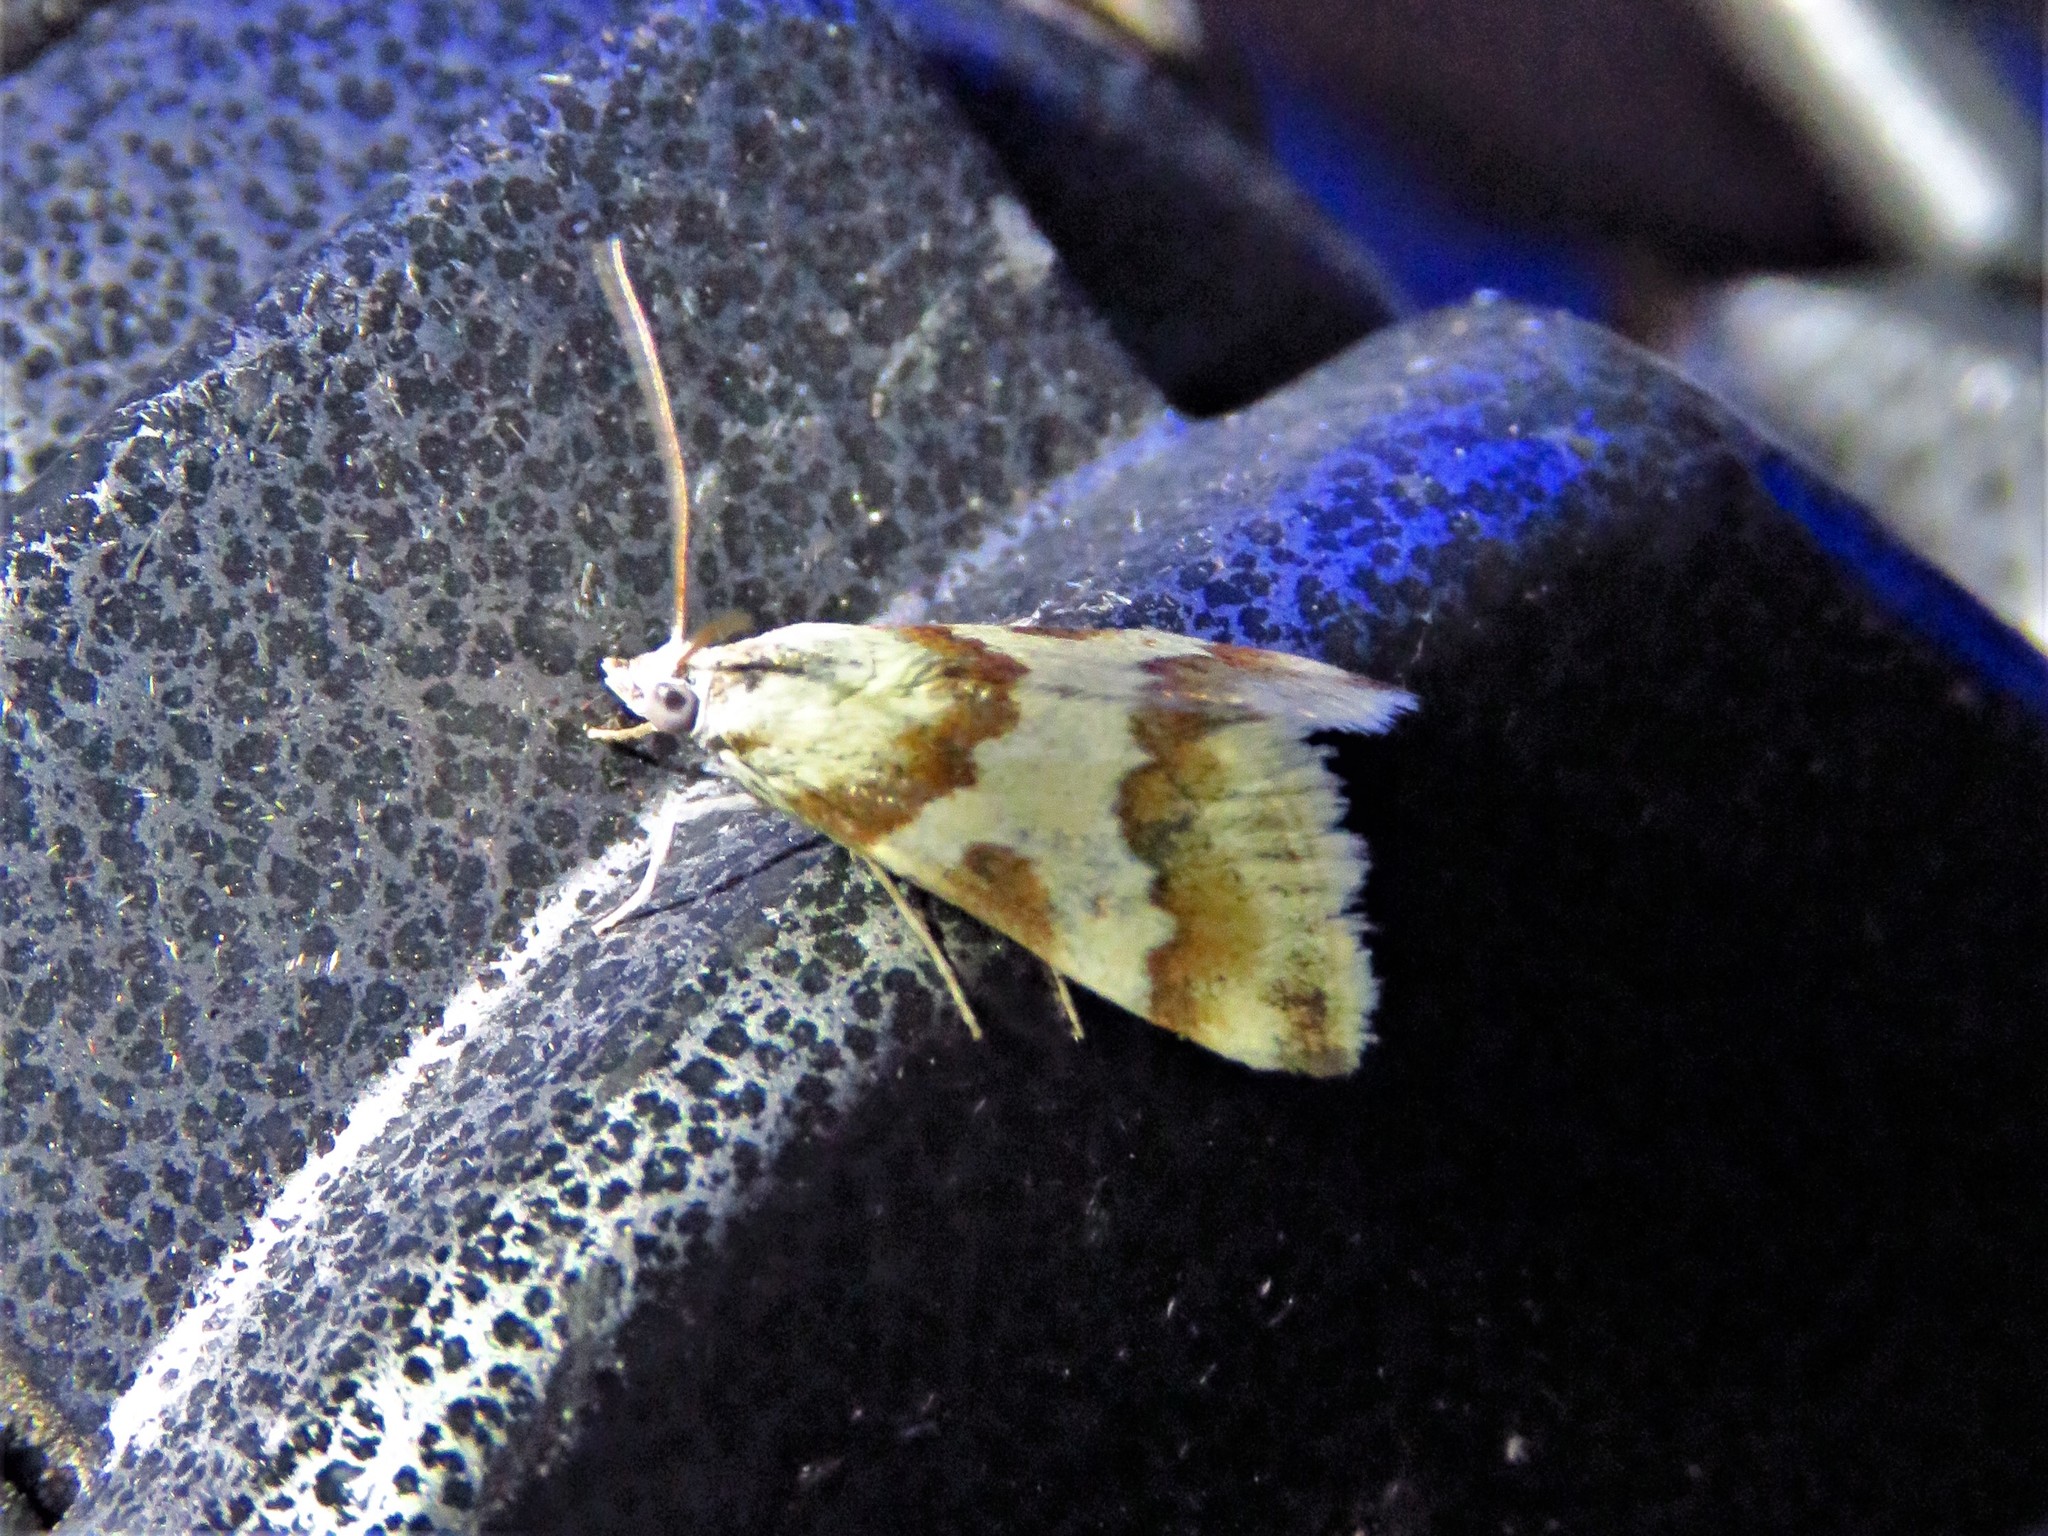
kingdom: Animalia
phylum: Arthropoda
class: Insecta
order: Lepidoptera
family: Crambidae
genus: Noctuelia
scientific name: Noctuelia Mimoschinia rufofascialis
